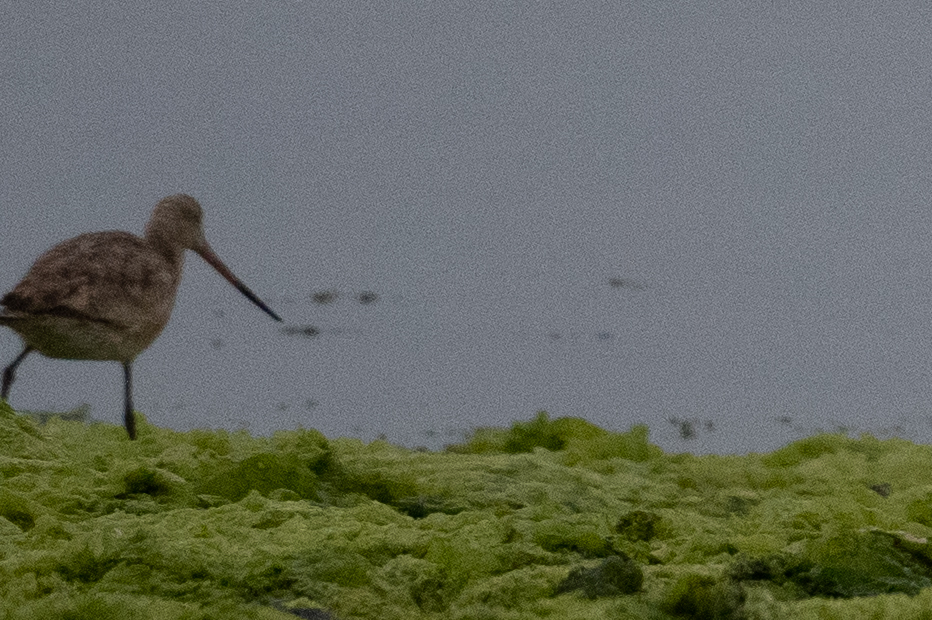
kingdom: Animalia
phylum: Chordata
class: Aves
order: Charadriiformes
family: Scolopacidae
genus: Limosa
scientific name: Limosa fedoa
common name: Marbled godwit
